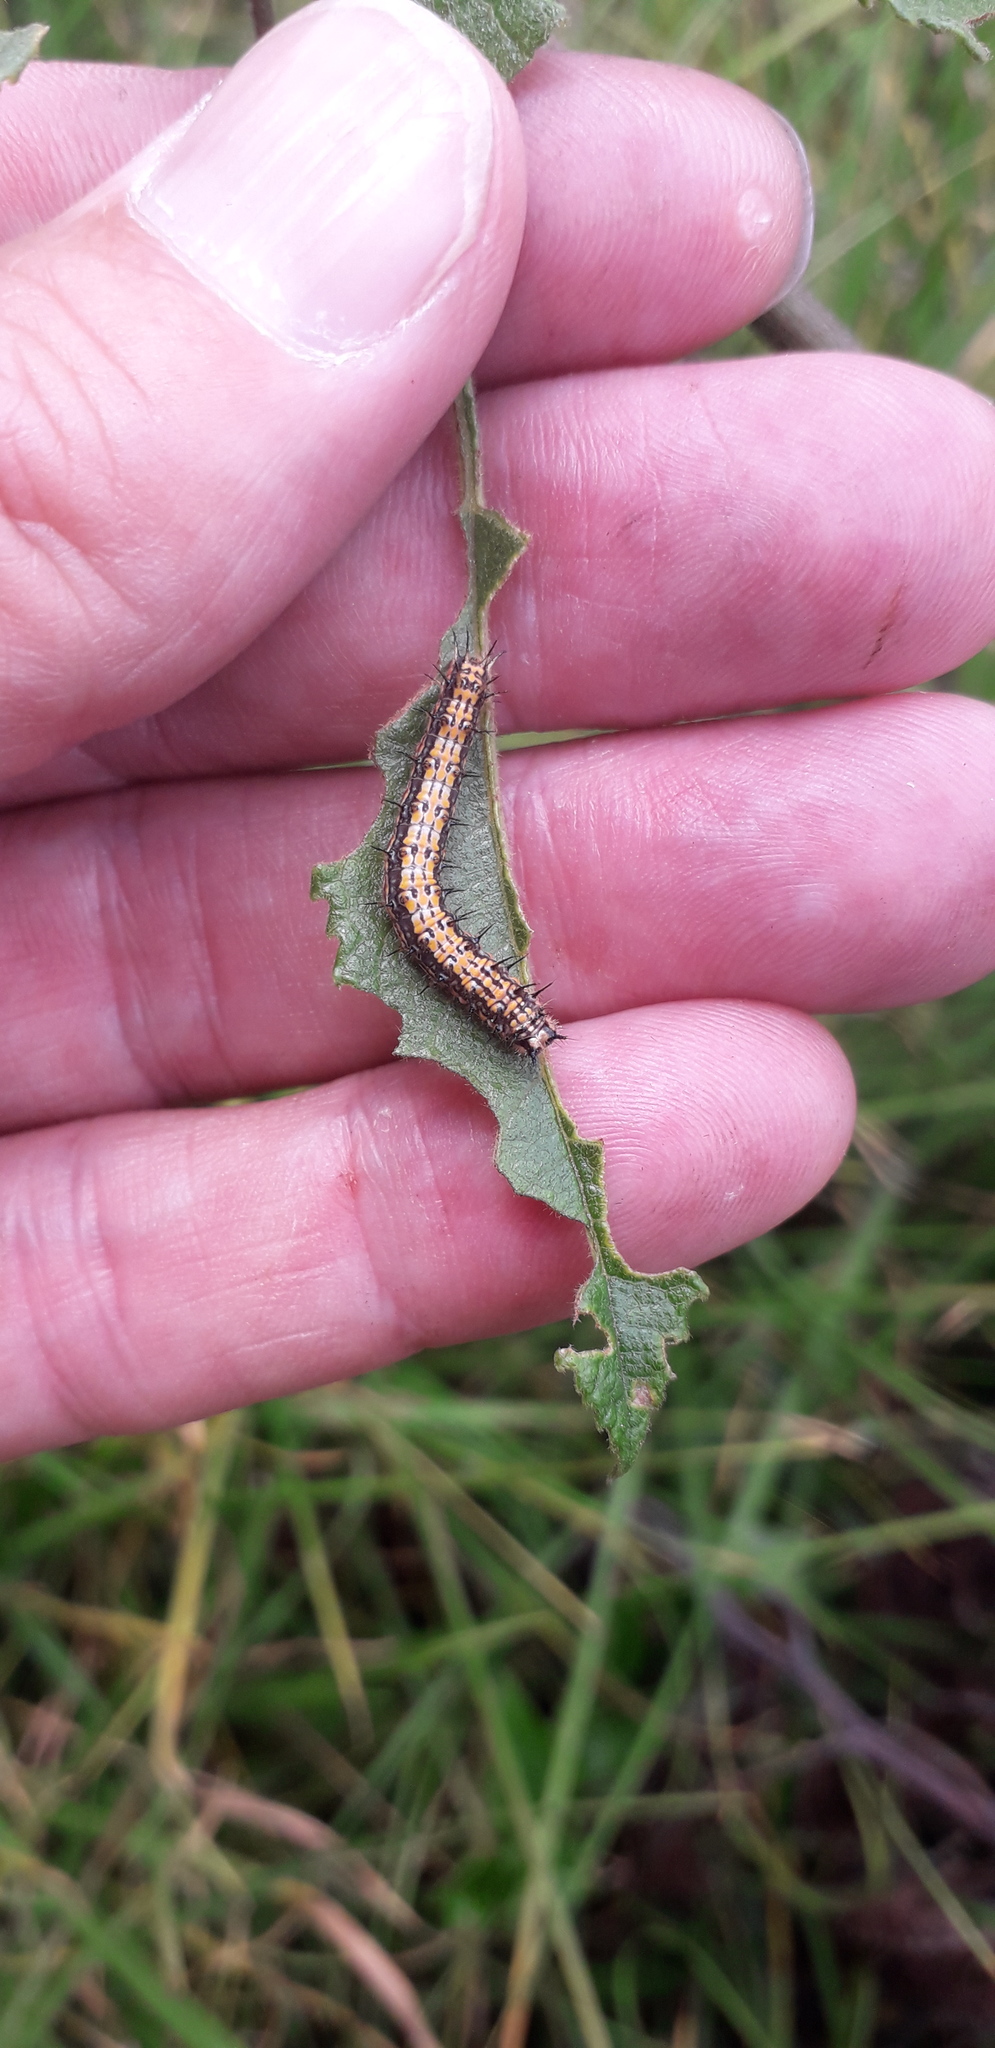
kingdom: Animalia
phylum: Arthropoda
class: Insecta
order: Lepidoptera
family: Nymphalidae
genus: Dione
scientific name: Dione glycera
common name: Andean silverspot
